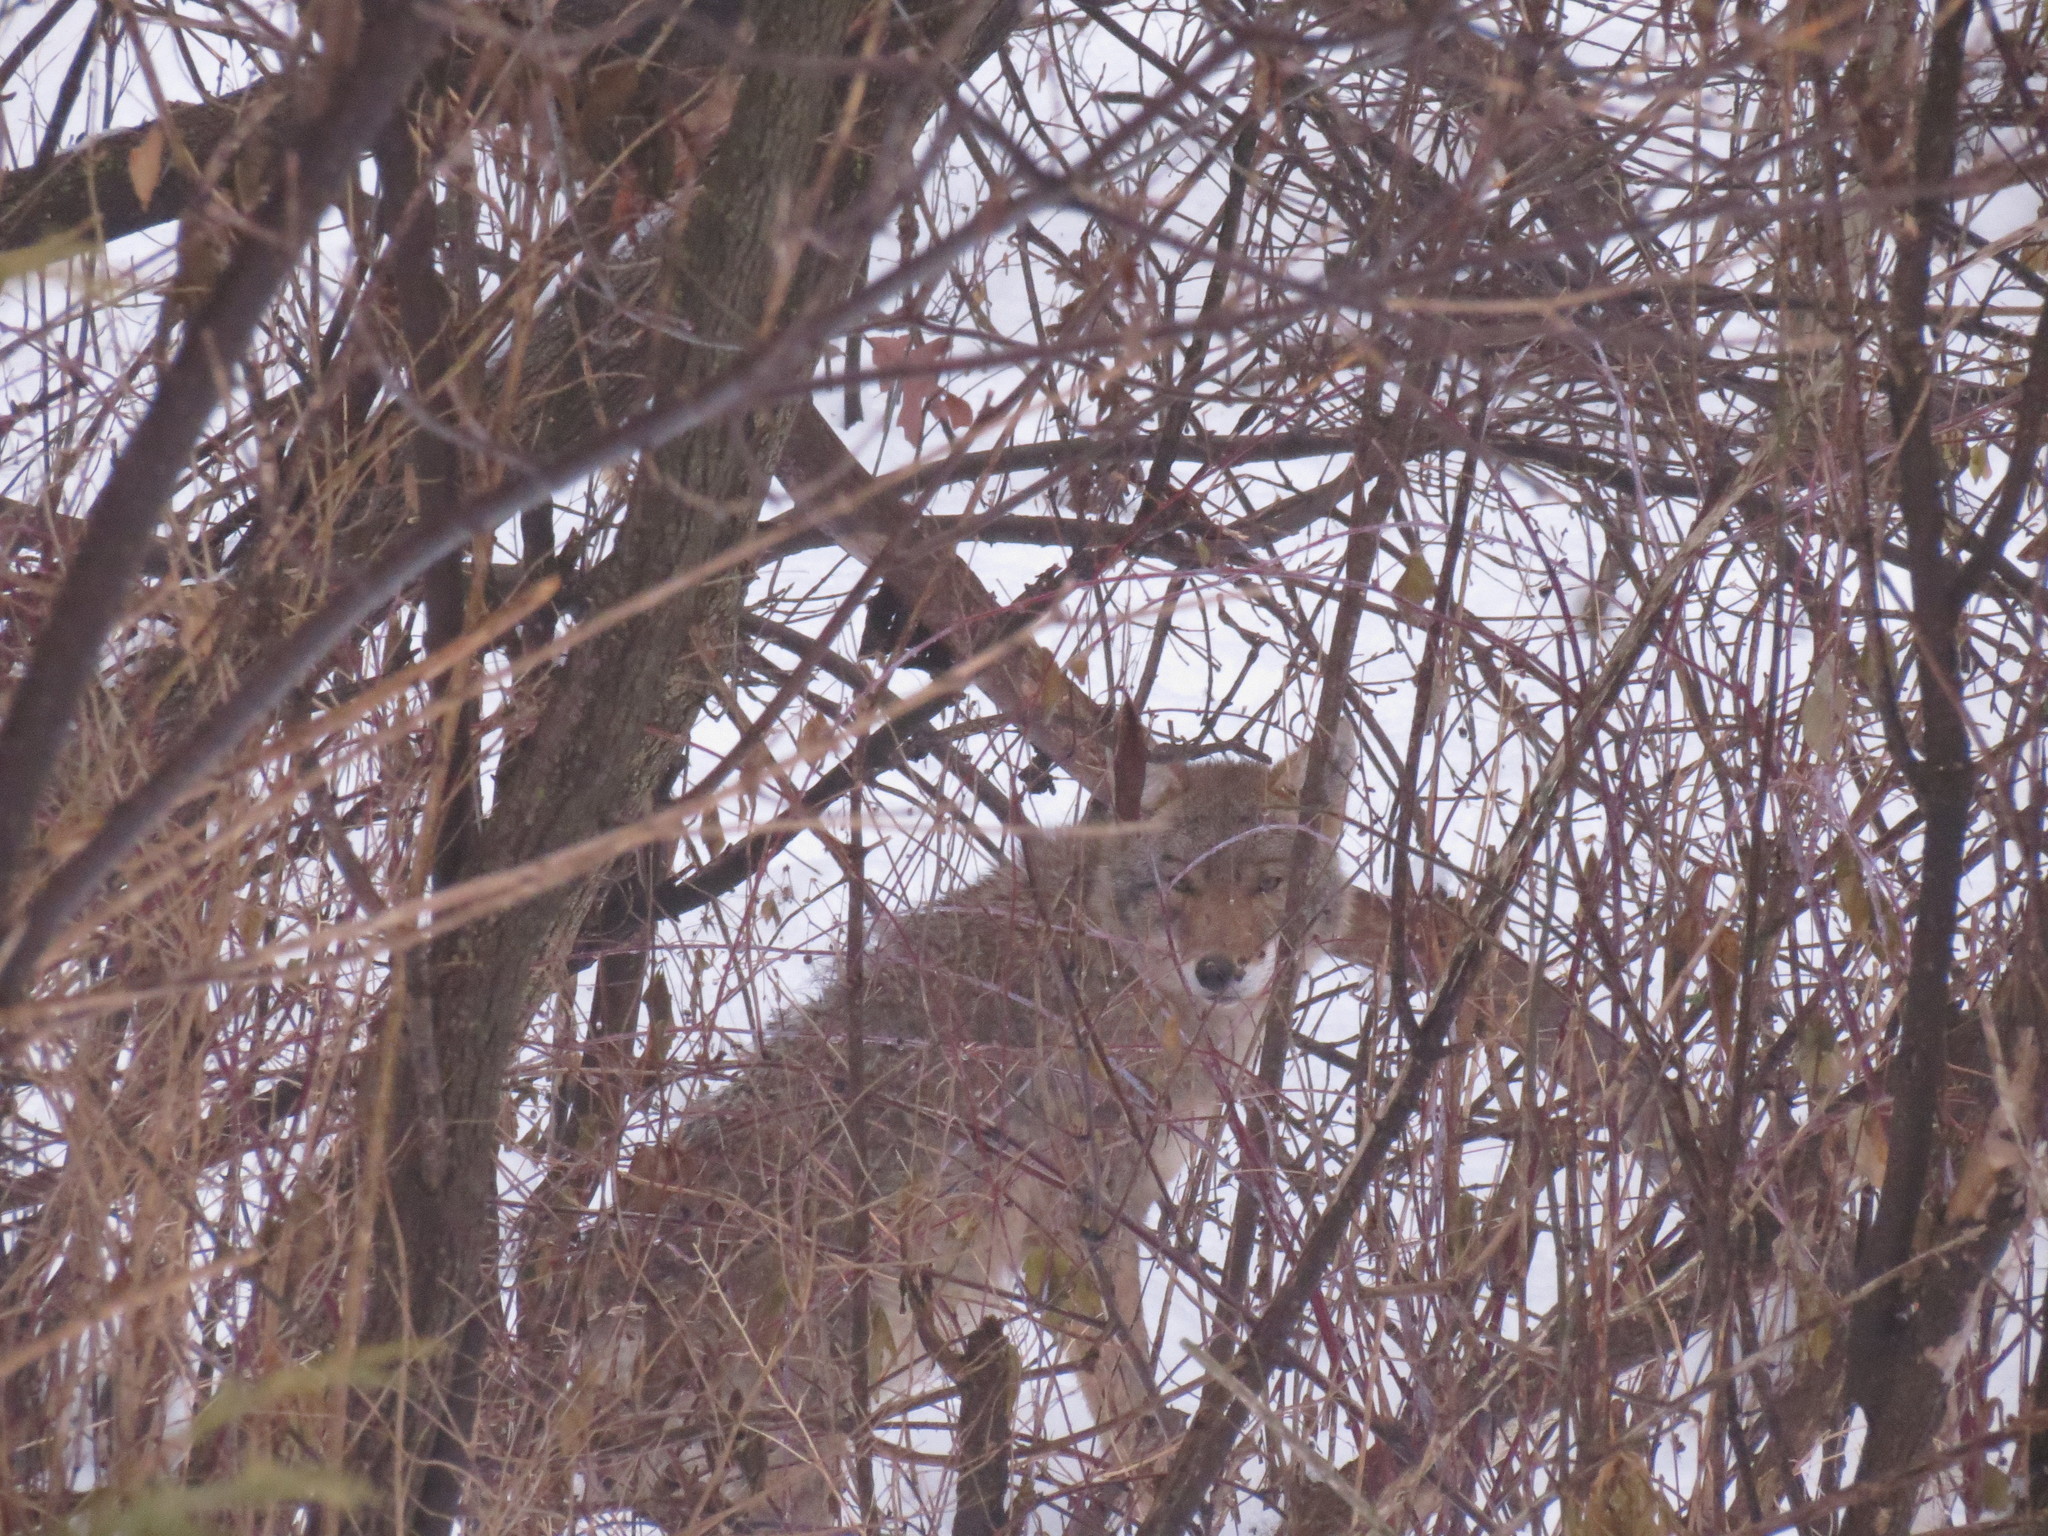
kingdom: Animalia
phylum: Chordata
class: Mammalia
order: Carnivora
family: Canidae
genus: Canis
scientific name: Canis latrans
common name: Coyote
